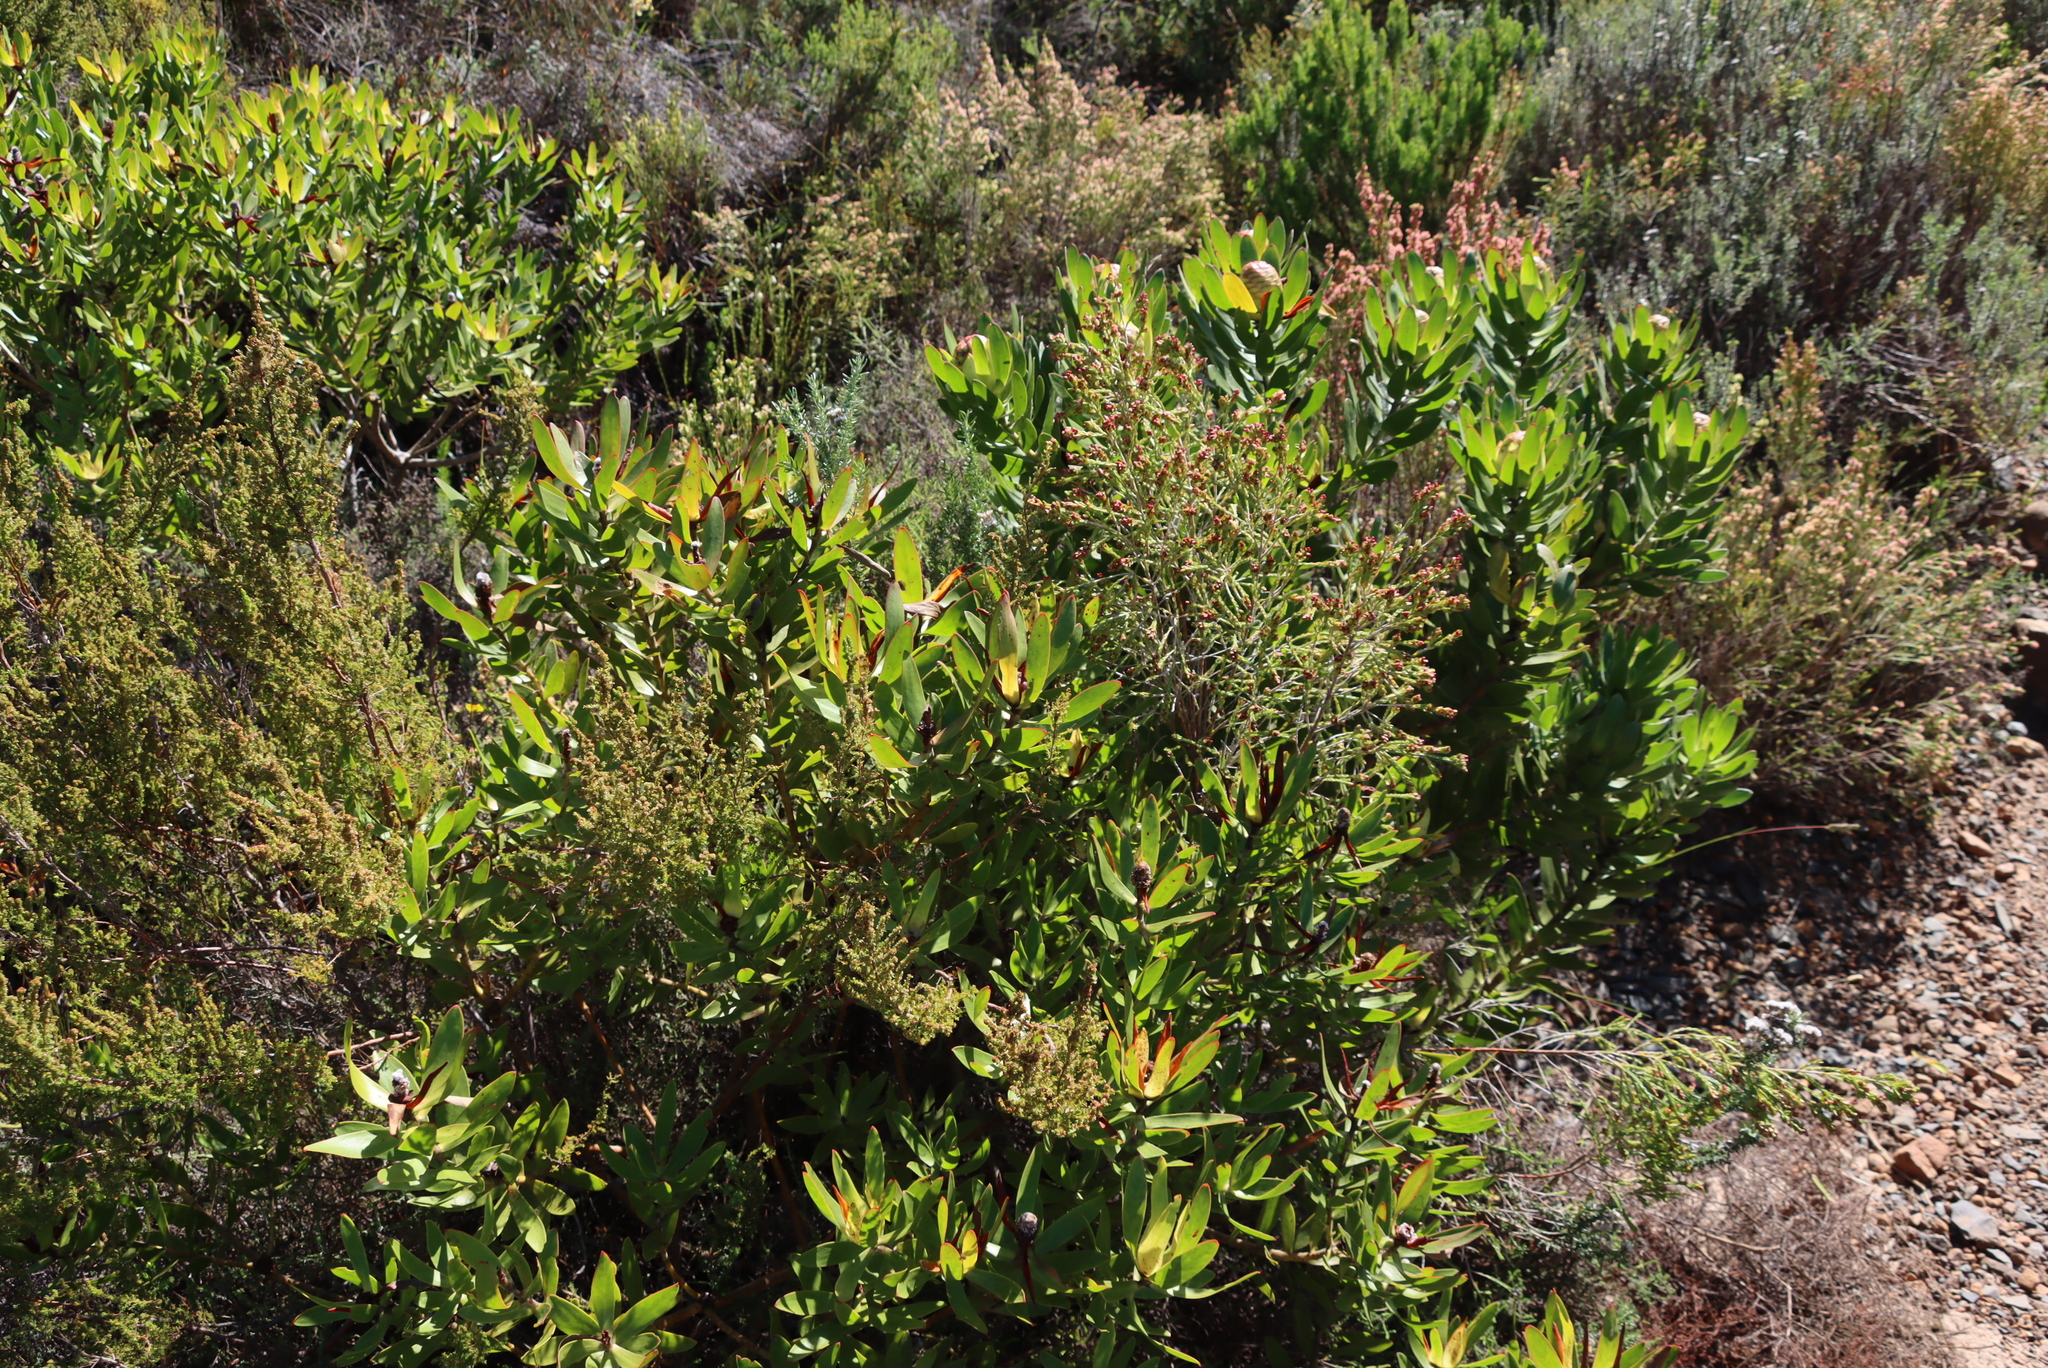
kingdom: Plantae
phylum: Tracheophyta
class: Magnoliopsida
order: Proteales
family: Proteaceae
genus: Leucadendron
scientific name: Leucadendron laureolum
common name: Golden sunshinebush
